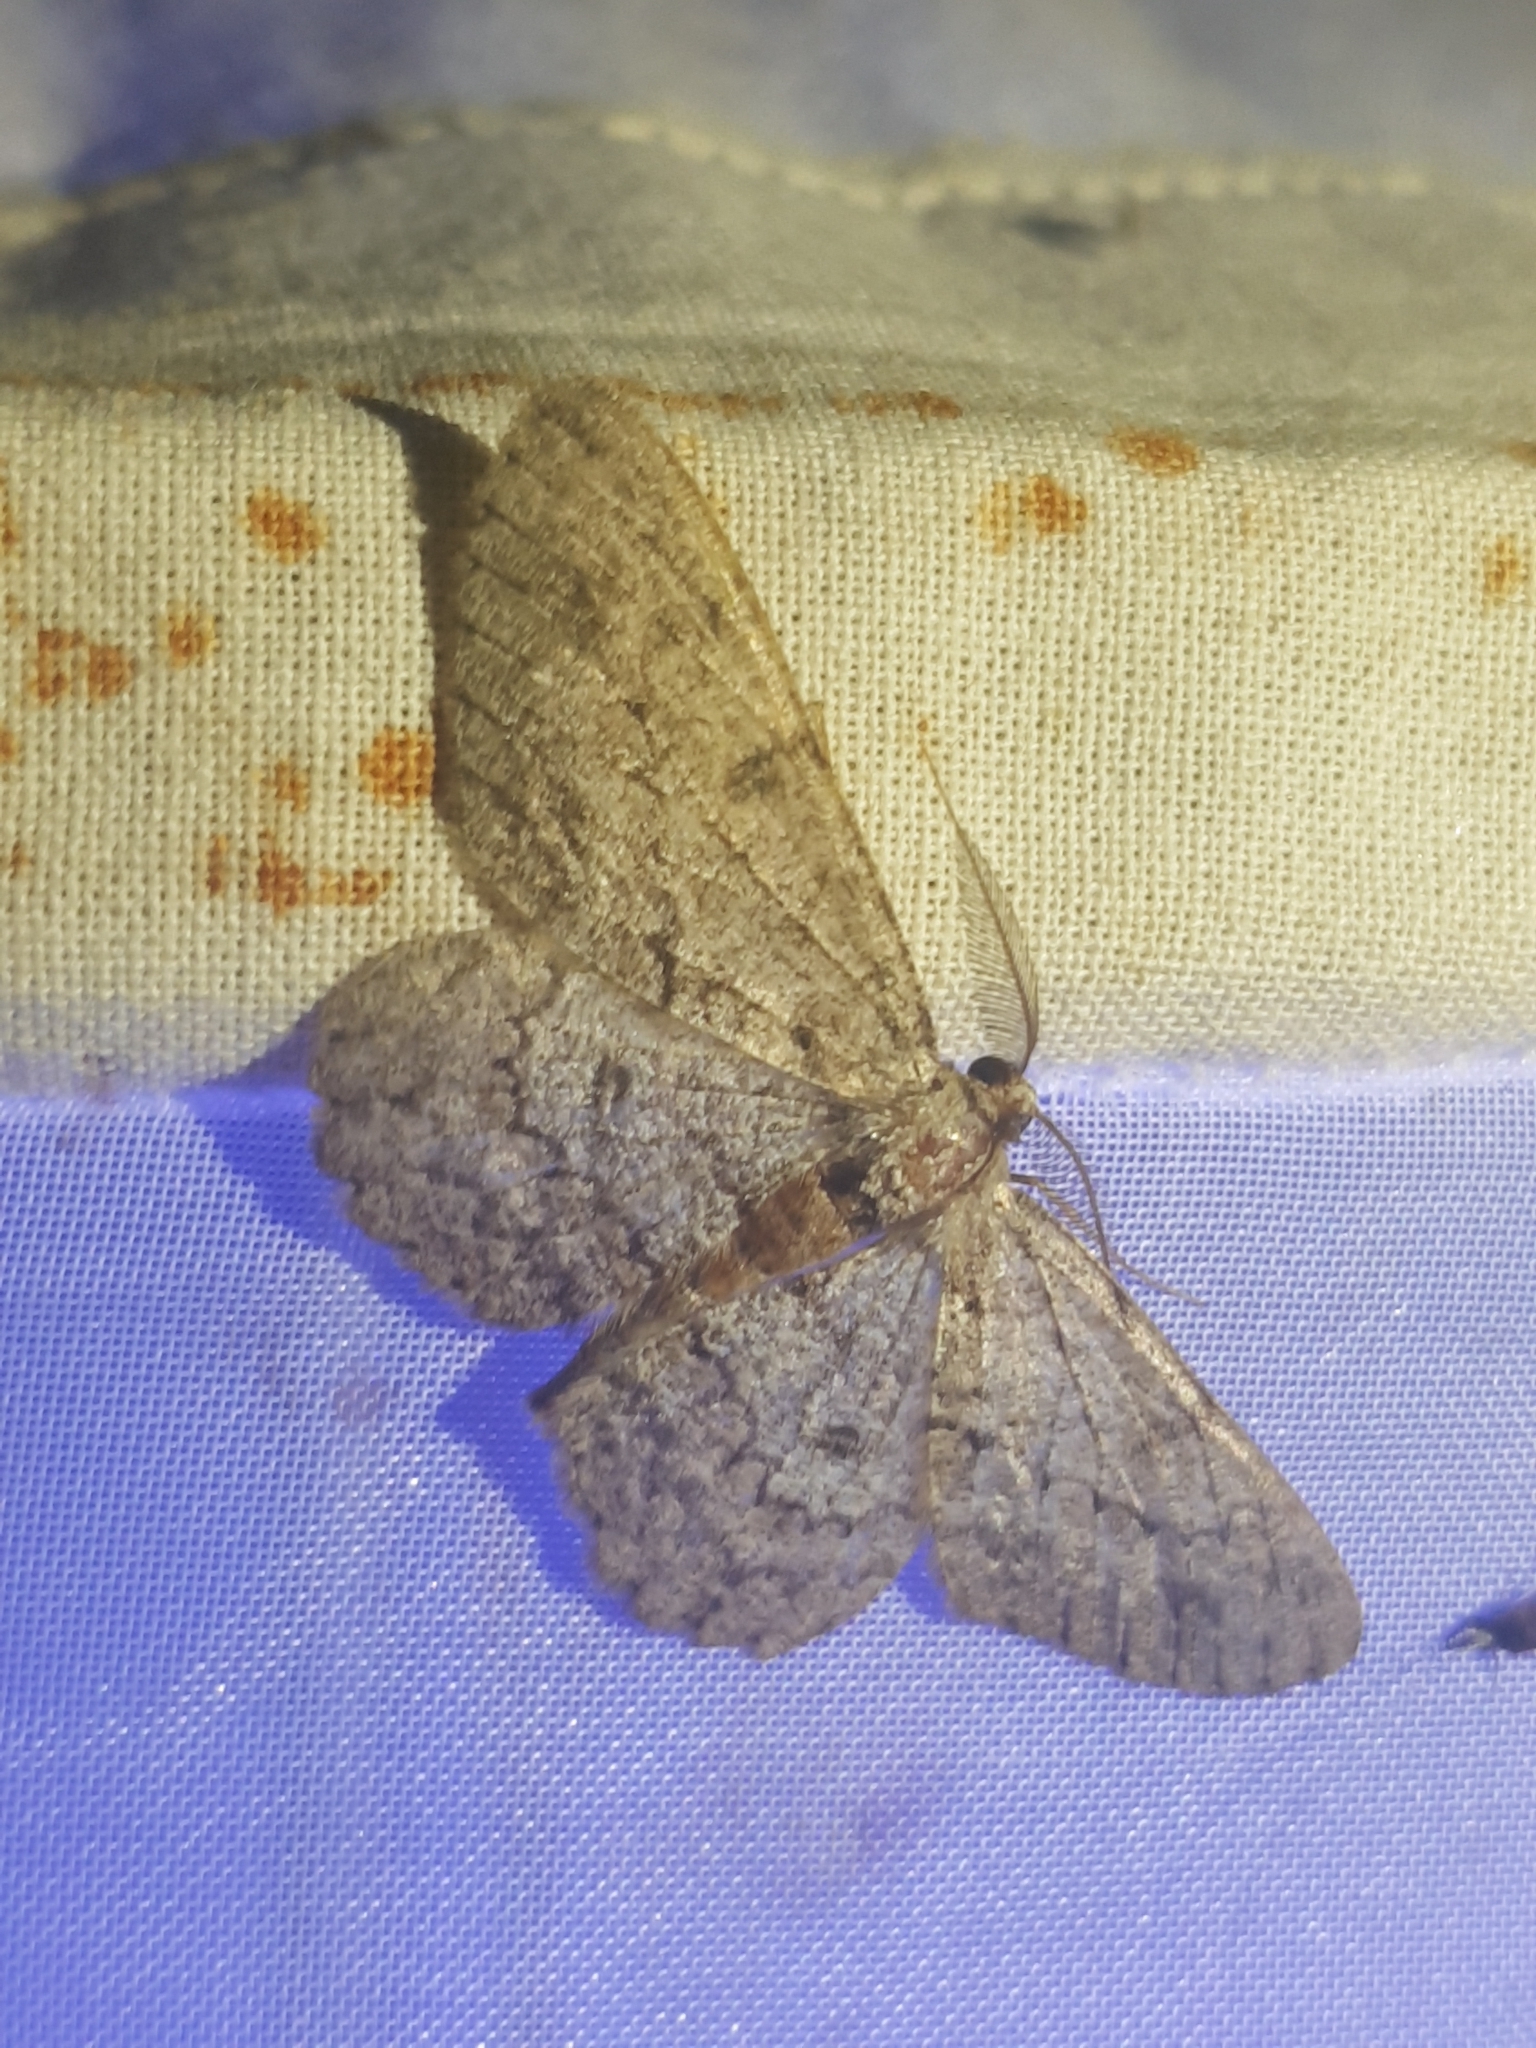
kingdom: Animalia
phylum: Arthropoda
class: Insecta
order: Lepidoptera
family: Geometridae
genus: Hypomecis
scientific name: Hypomecis punctinalis
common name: Pale oak beauty
